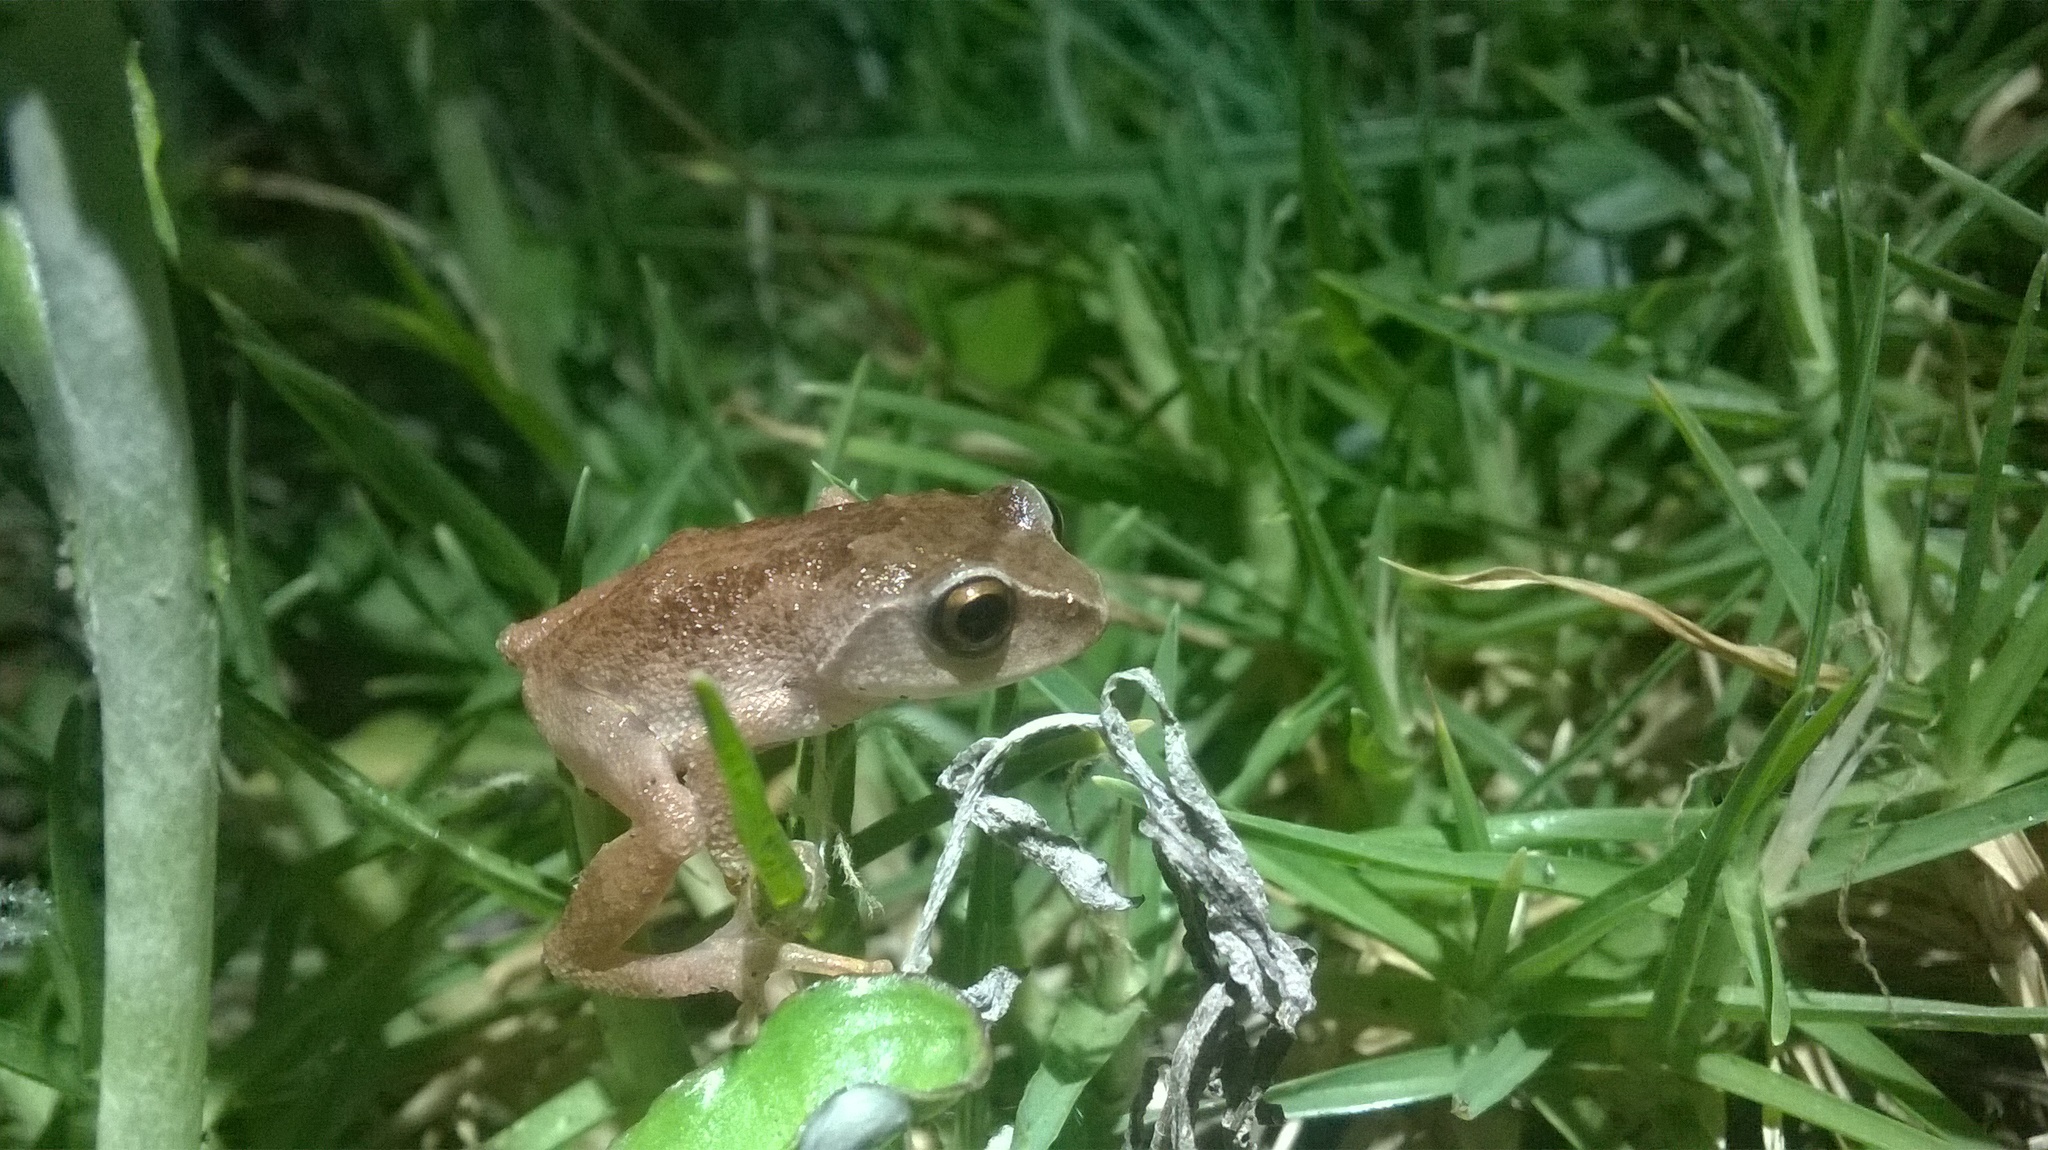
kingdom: Animalia
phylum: Chordata
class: Amphibia
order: Anura
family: Rhacophoridae
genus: Raorchestes
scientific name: Raorchestes dubois
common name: Koadaikanal bush frog
